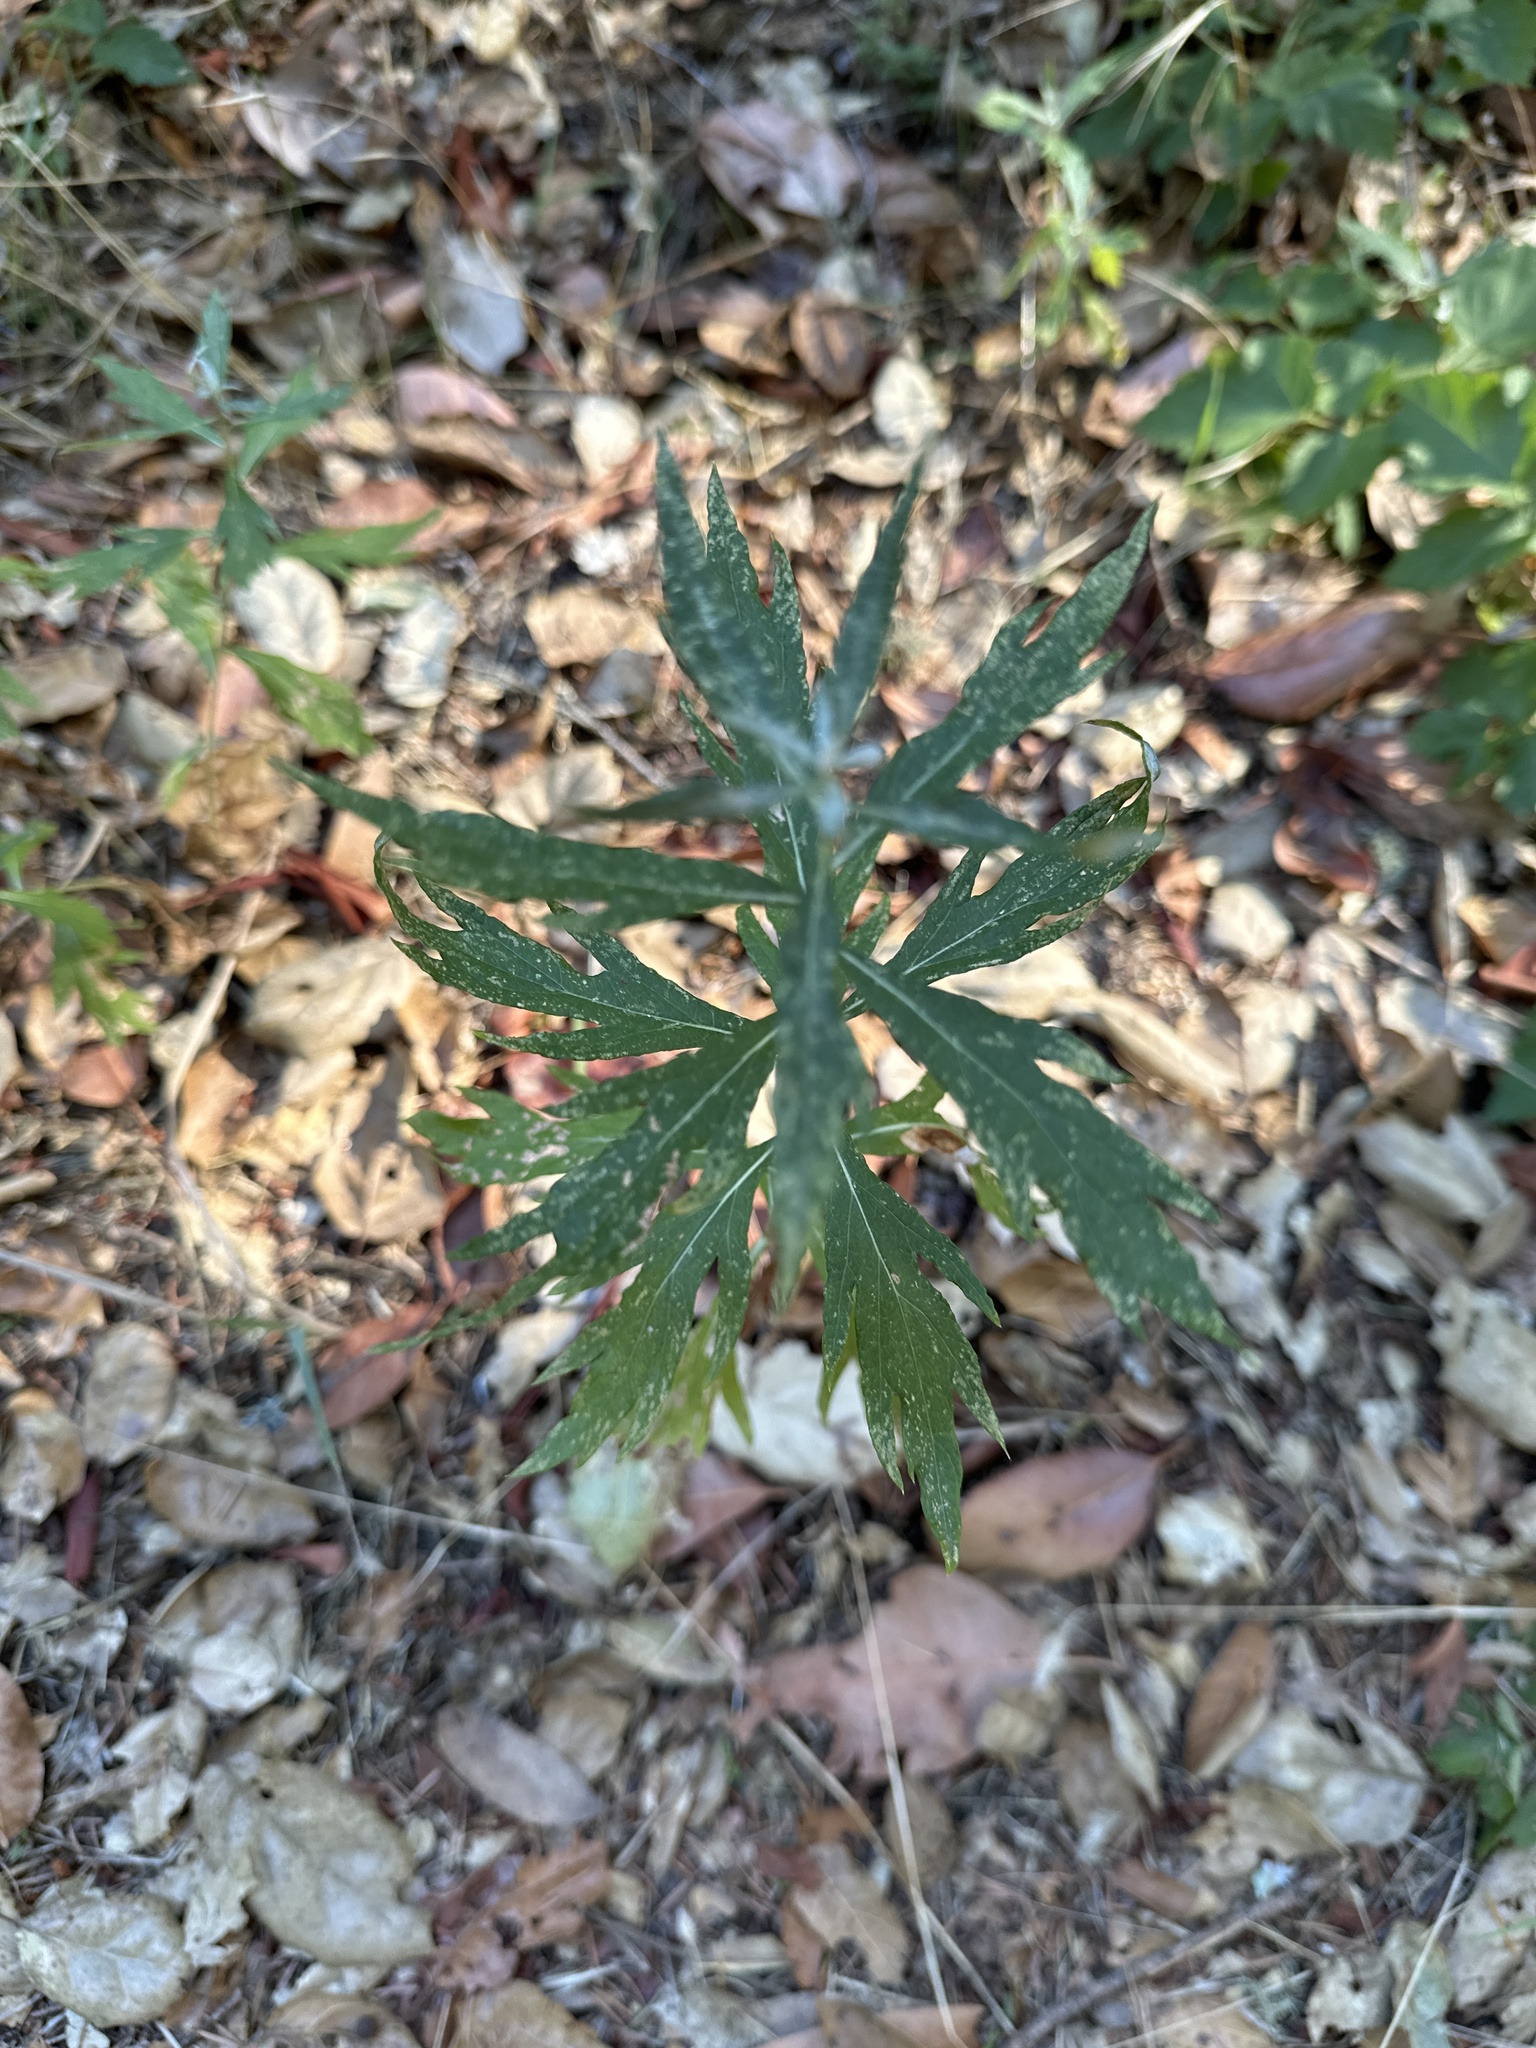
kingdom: Plantae
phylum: Tracheophyta
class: Magnoliopsida
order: Asterales
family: Asteraceae
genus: Artemisia
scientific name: Artemisia douglasiana
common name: Northwest mugwort
